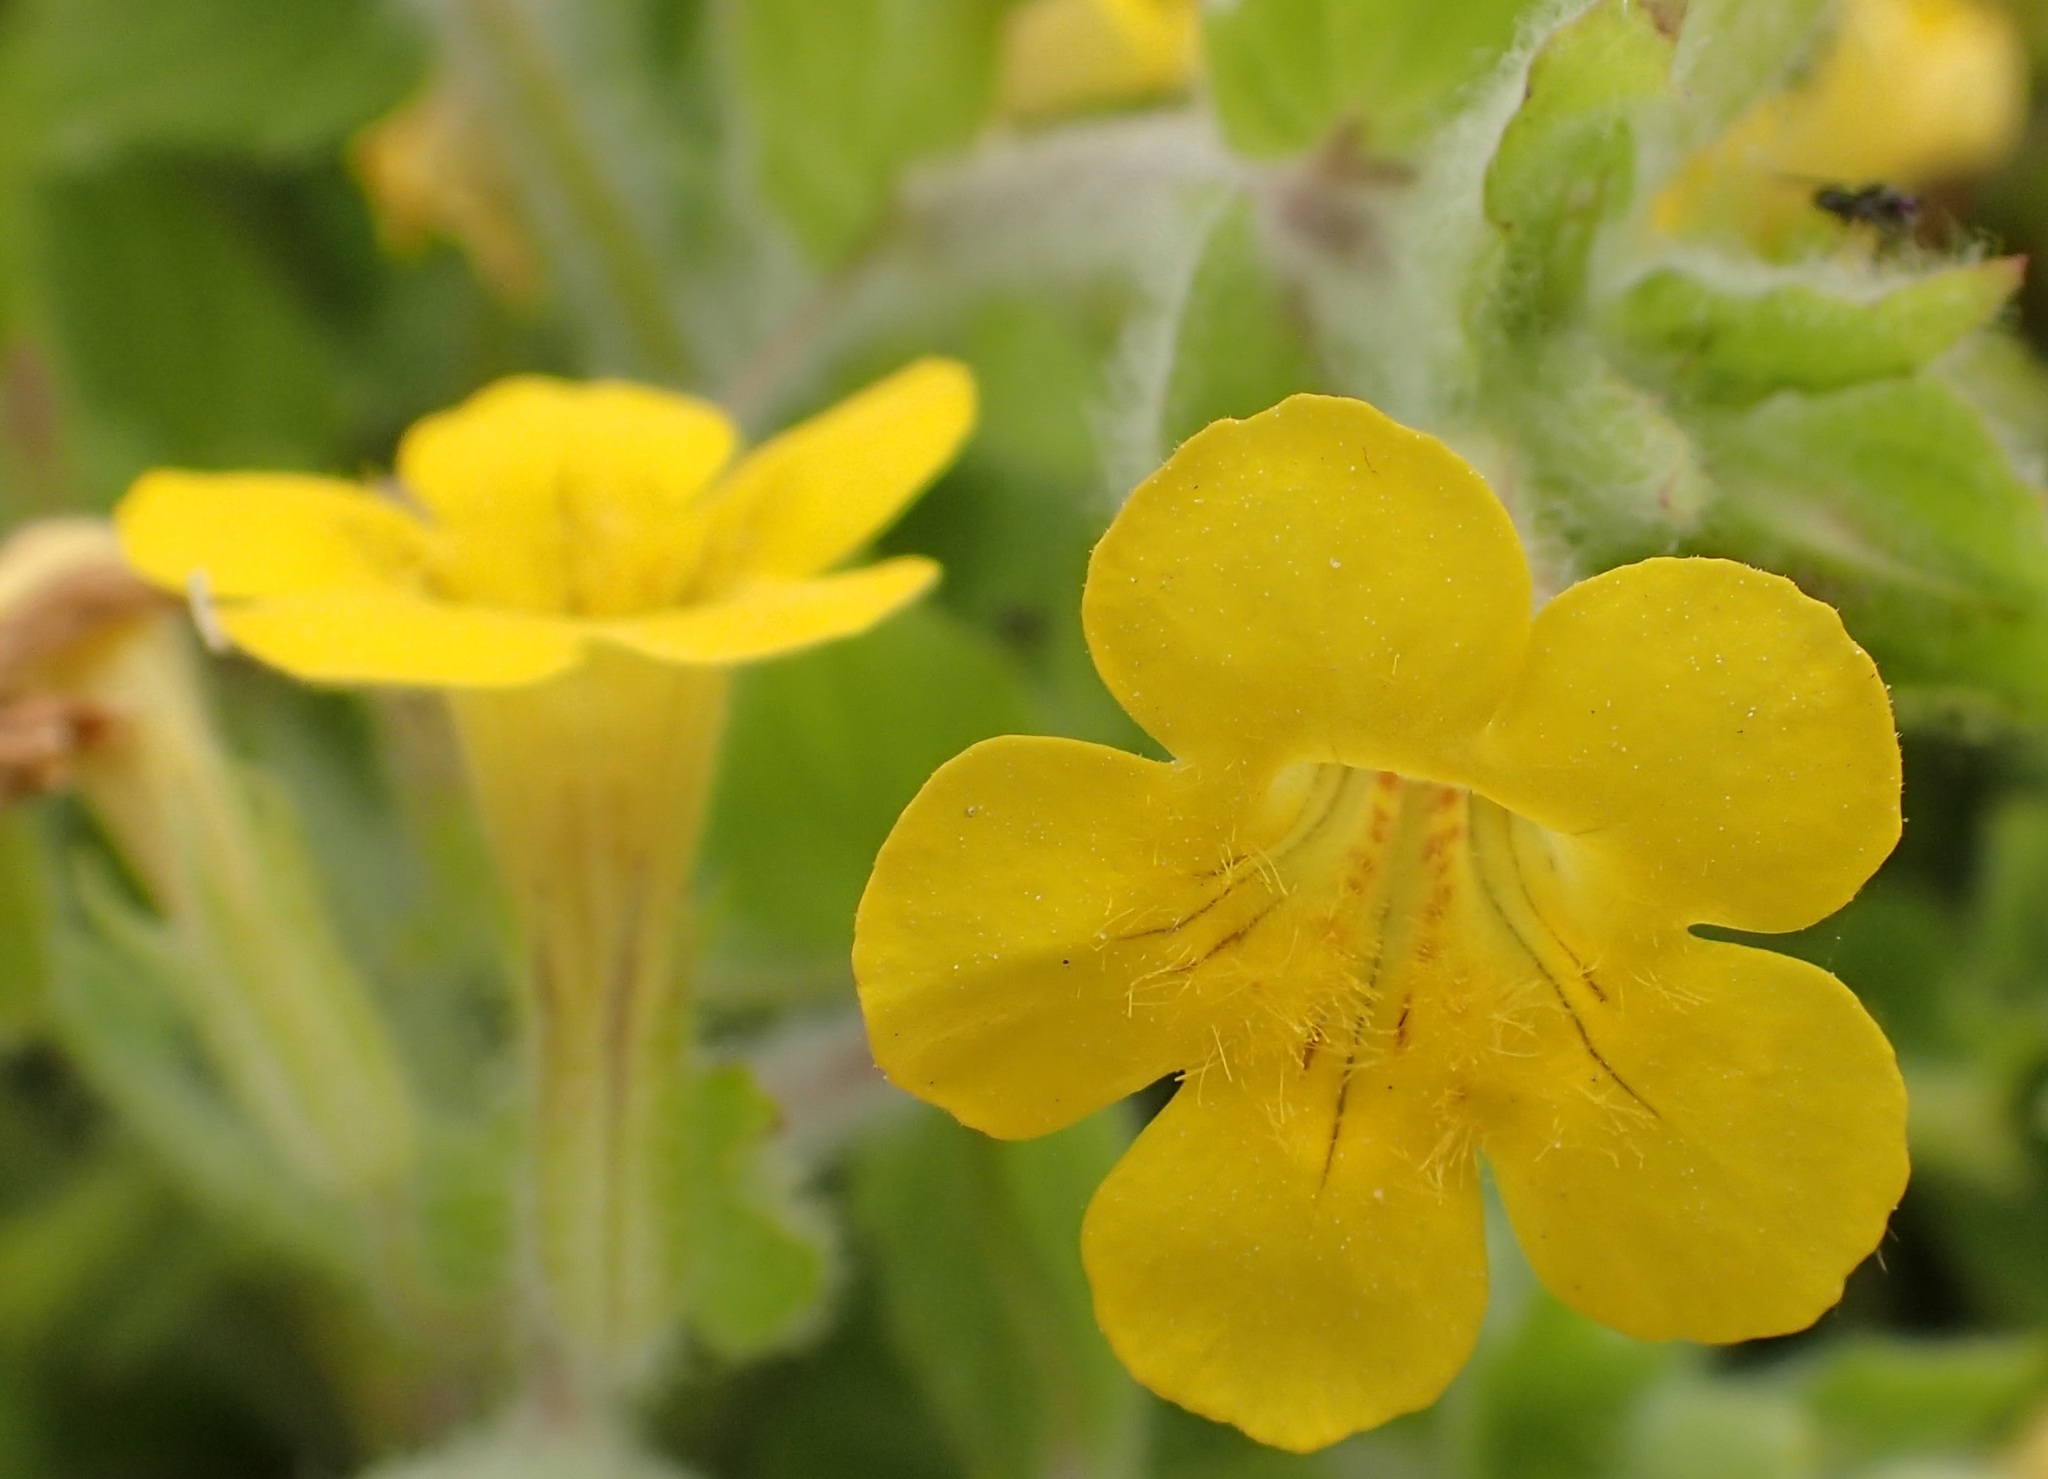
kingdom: Plantae
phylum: Tracheophyta
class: Magnoliopsida
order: Lamiales
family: Phrymaceae
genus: Erythranthe
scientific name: Erythranthe moschata
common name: Muskflower
